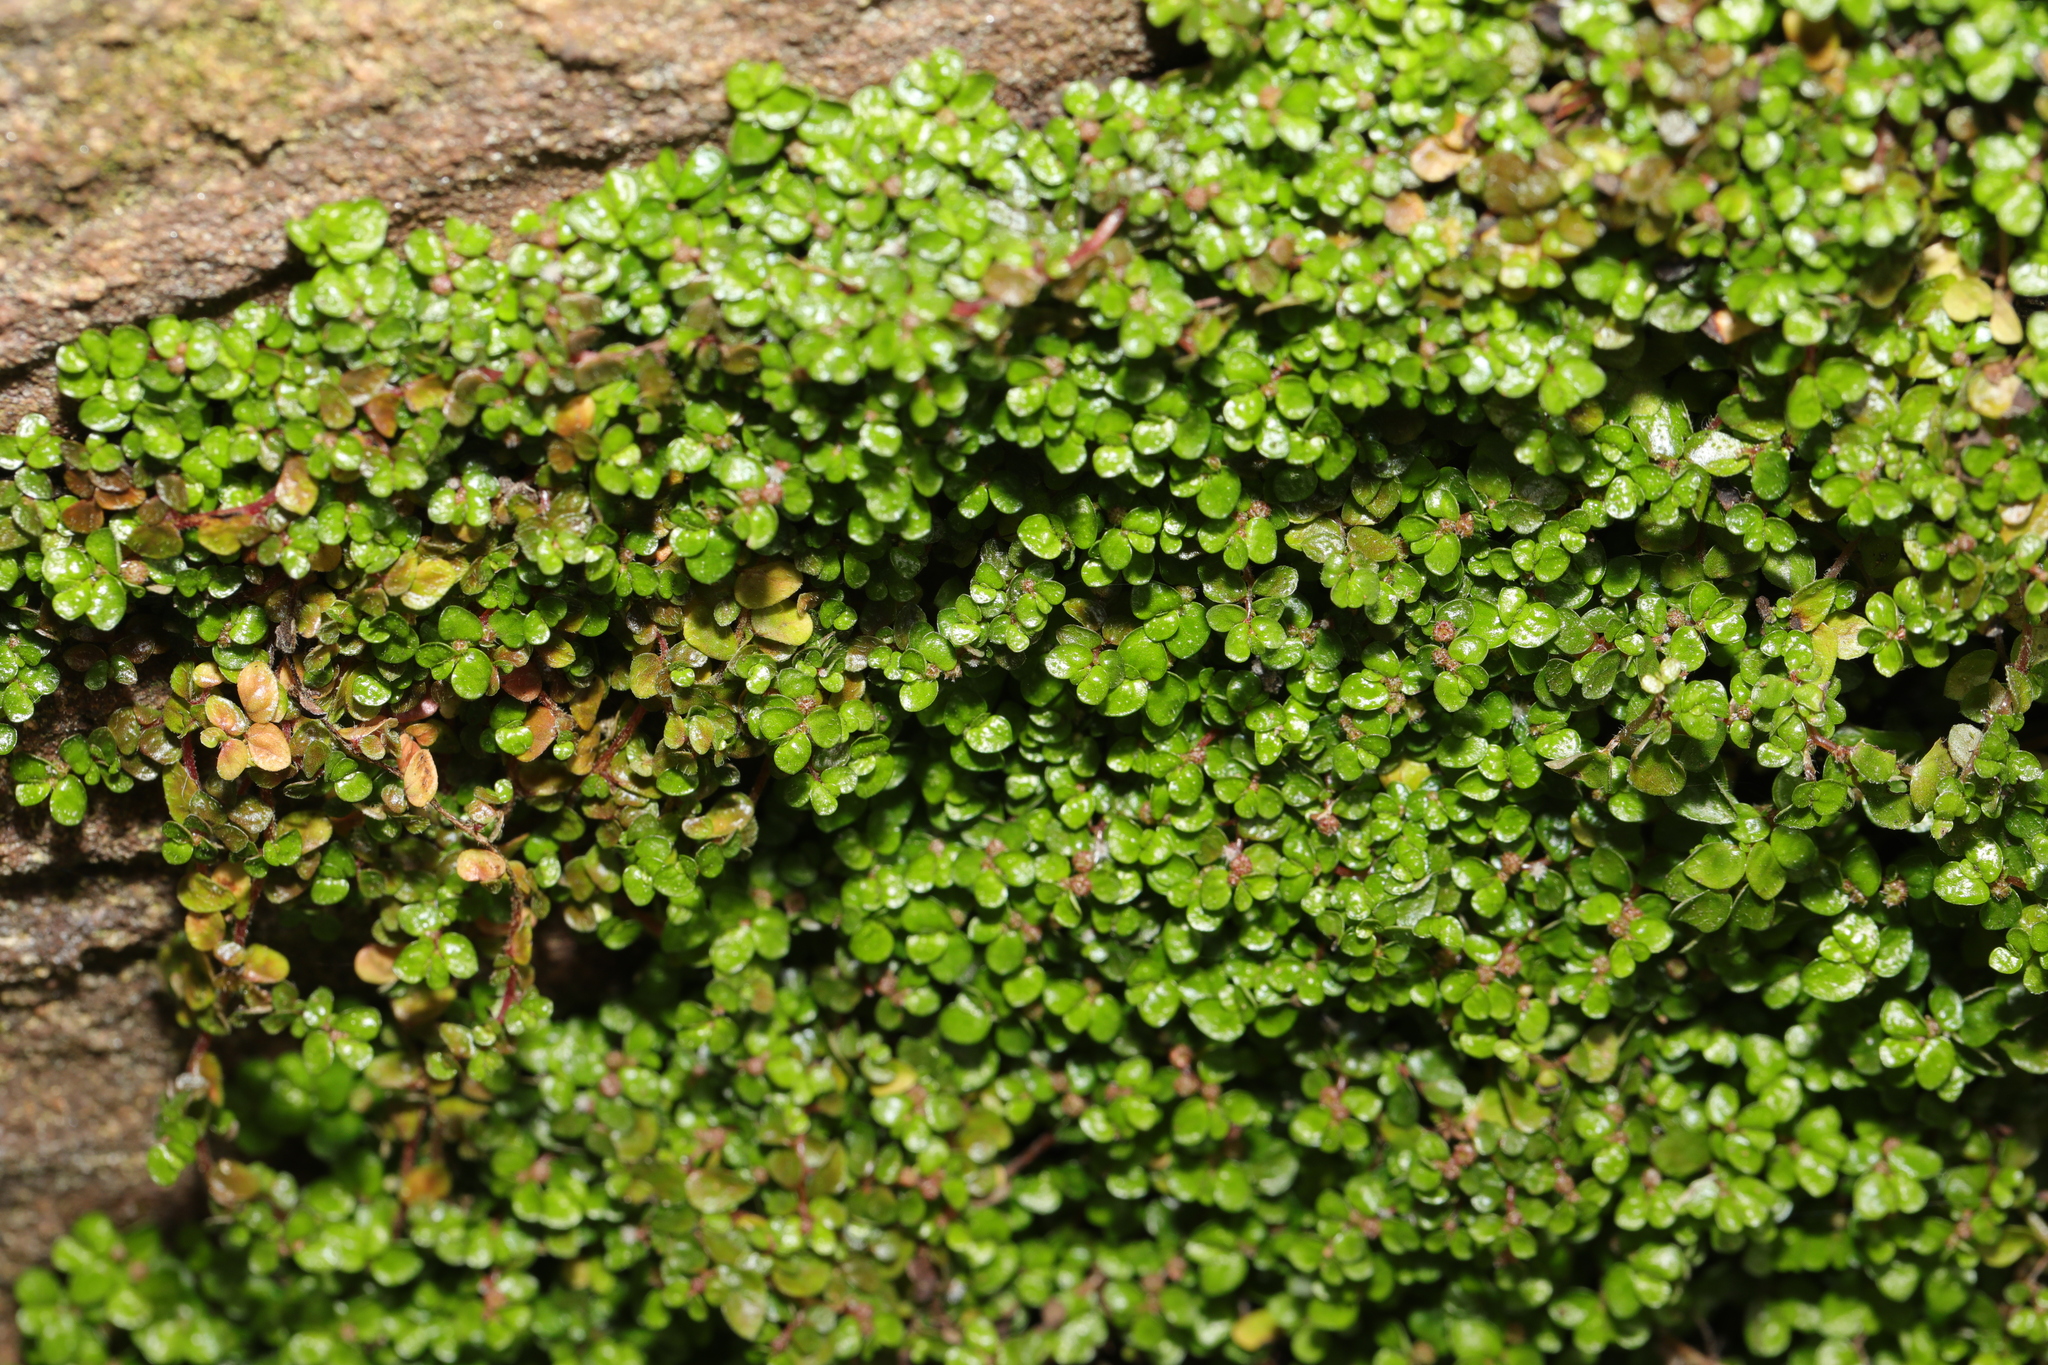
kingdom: Plantae
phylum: Tracheophyta
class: Magnoliopsida
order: Rosales
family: Urticaceae
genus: Soleirolia
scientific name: Soleirolia soleirolii
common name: Mind-your-own-business
